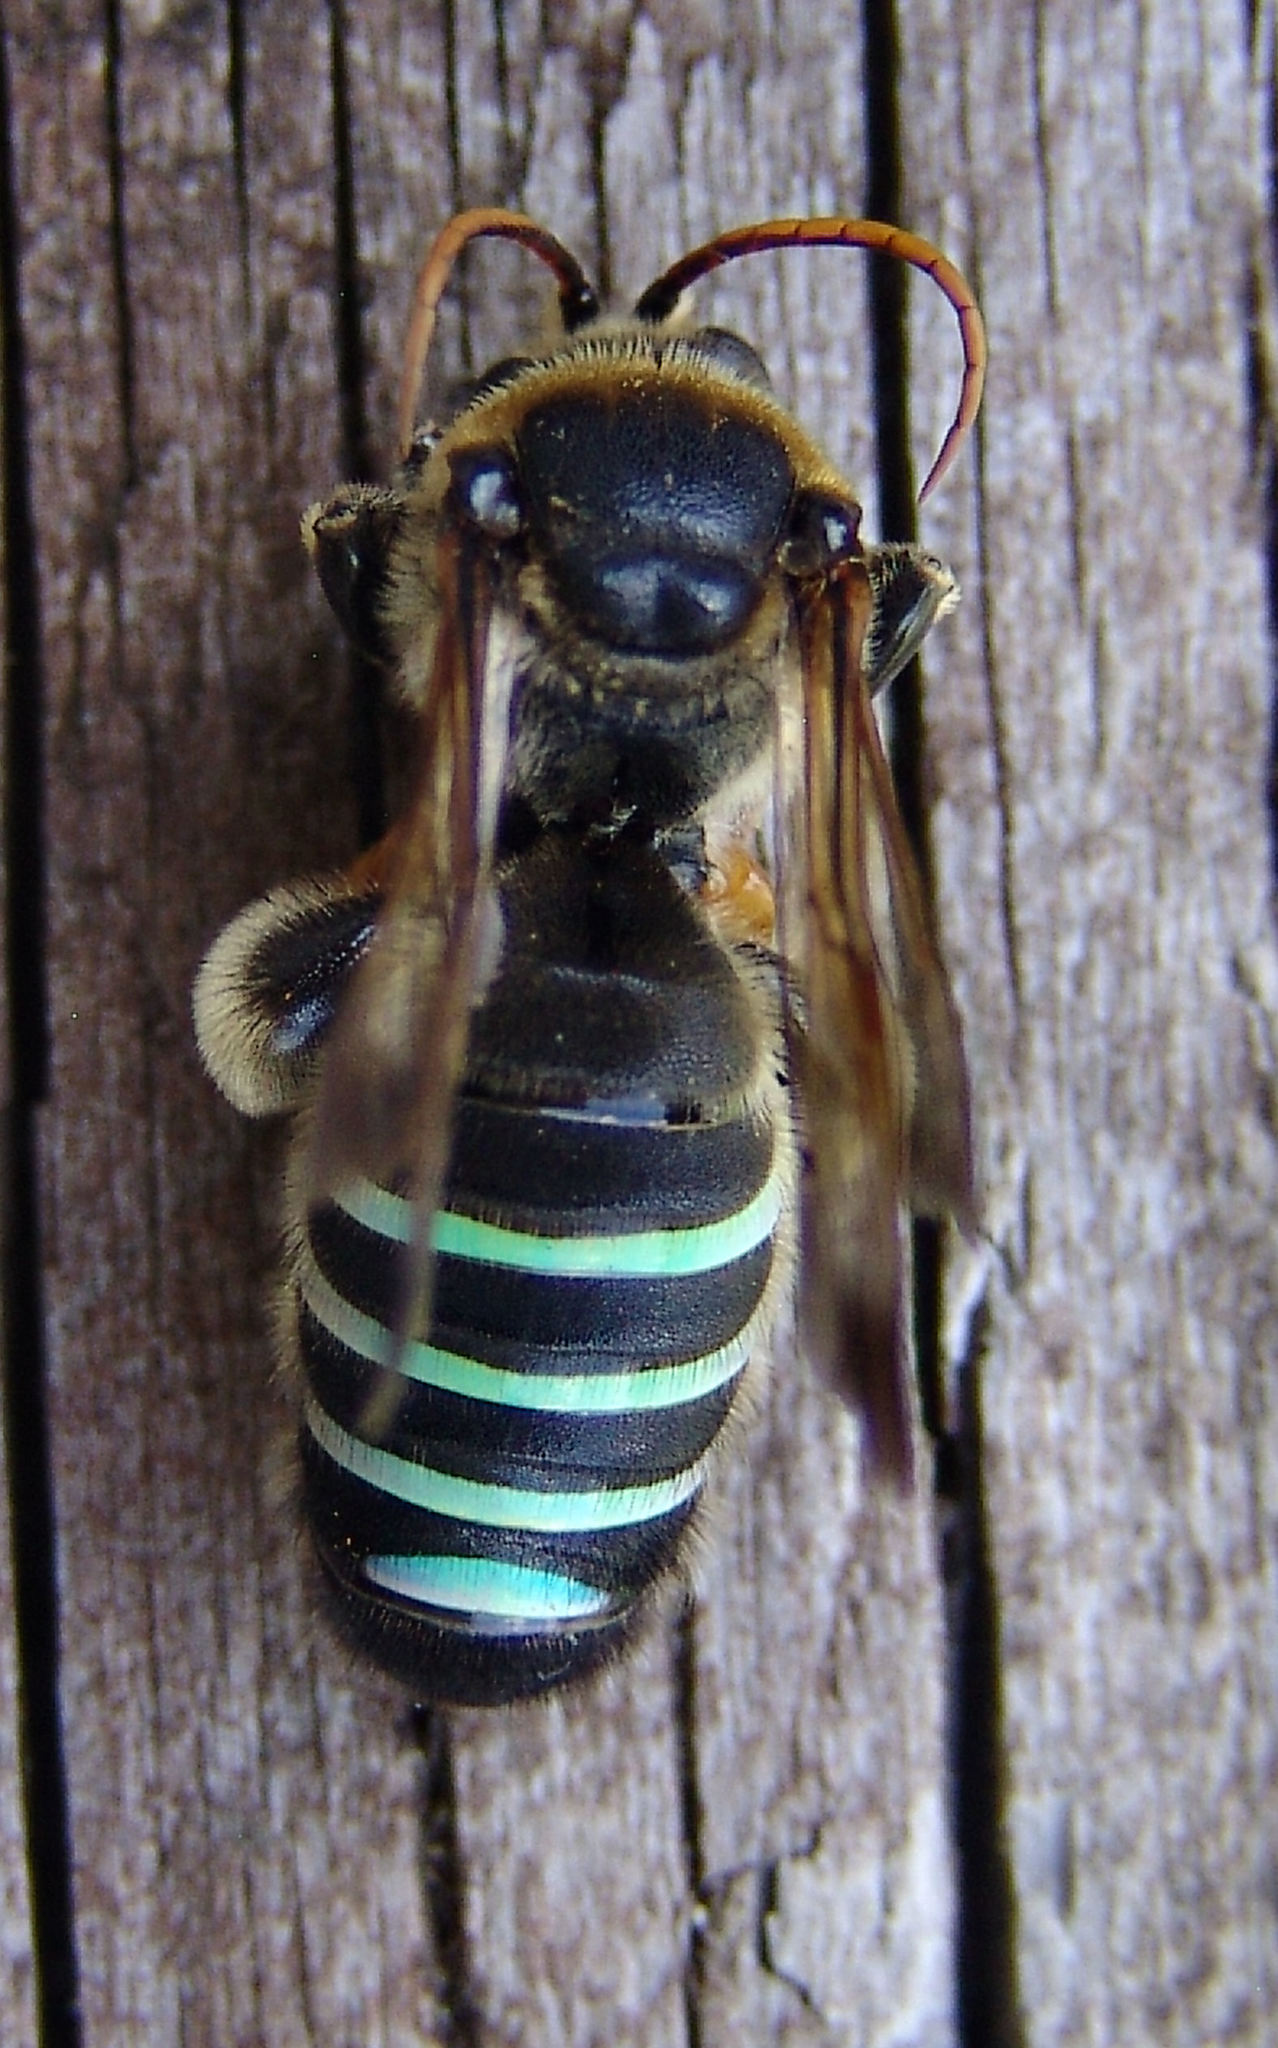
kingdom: Animalia
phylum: Arthropoda
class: Insecta
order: Hymenoptera
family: Halictidae
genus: Nomia
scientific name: Nomia nortoni
